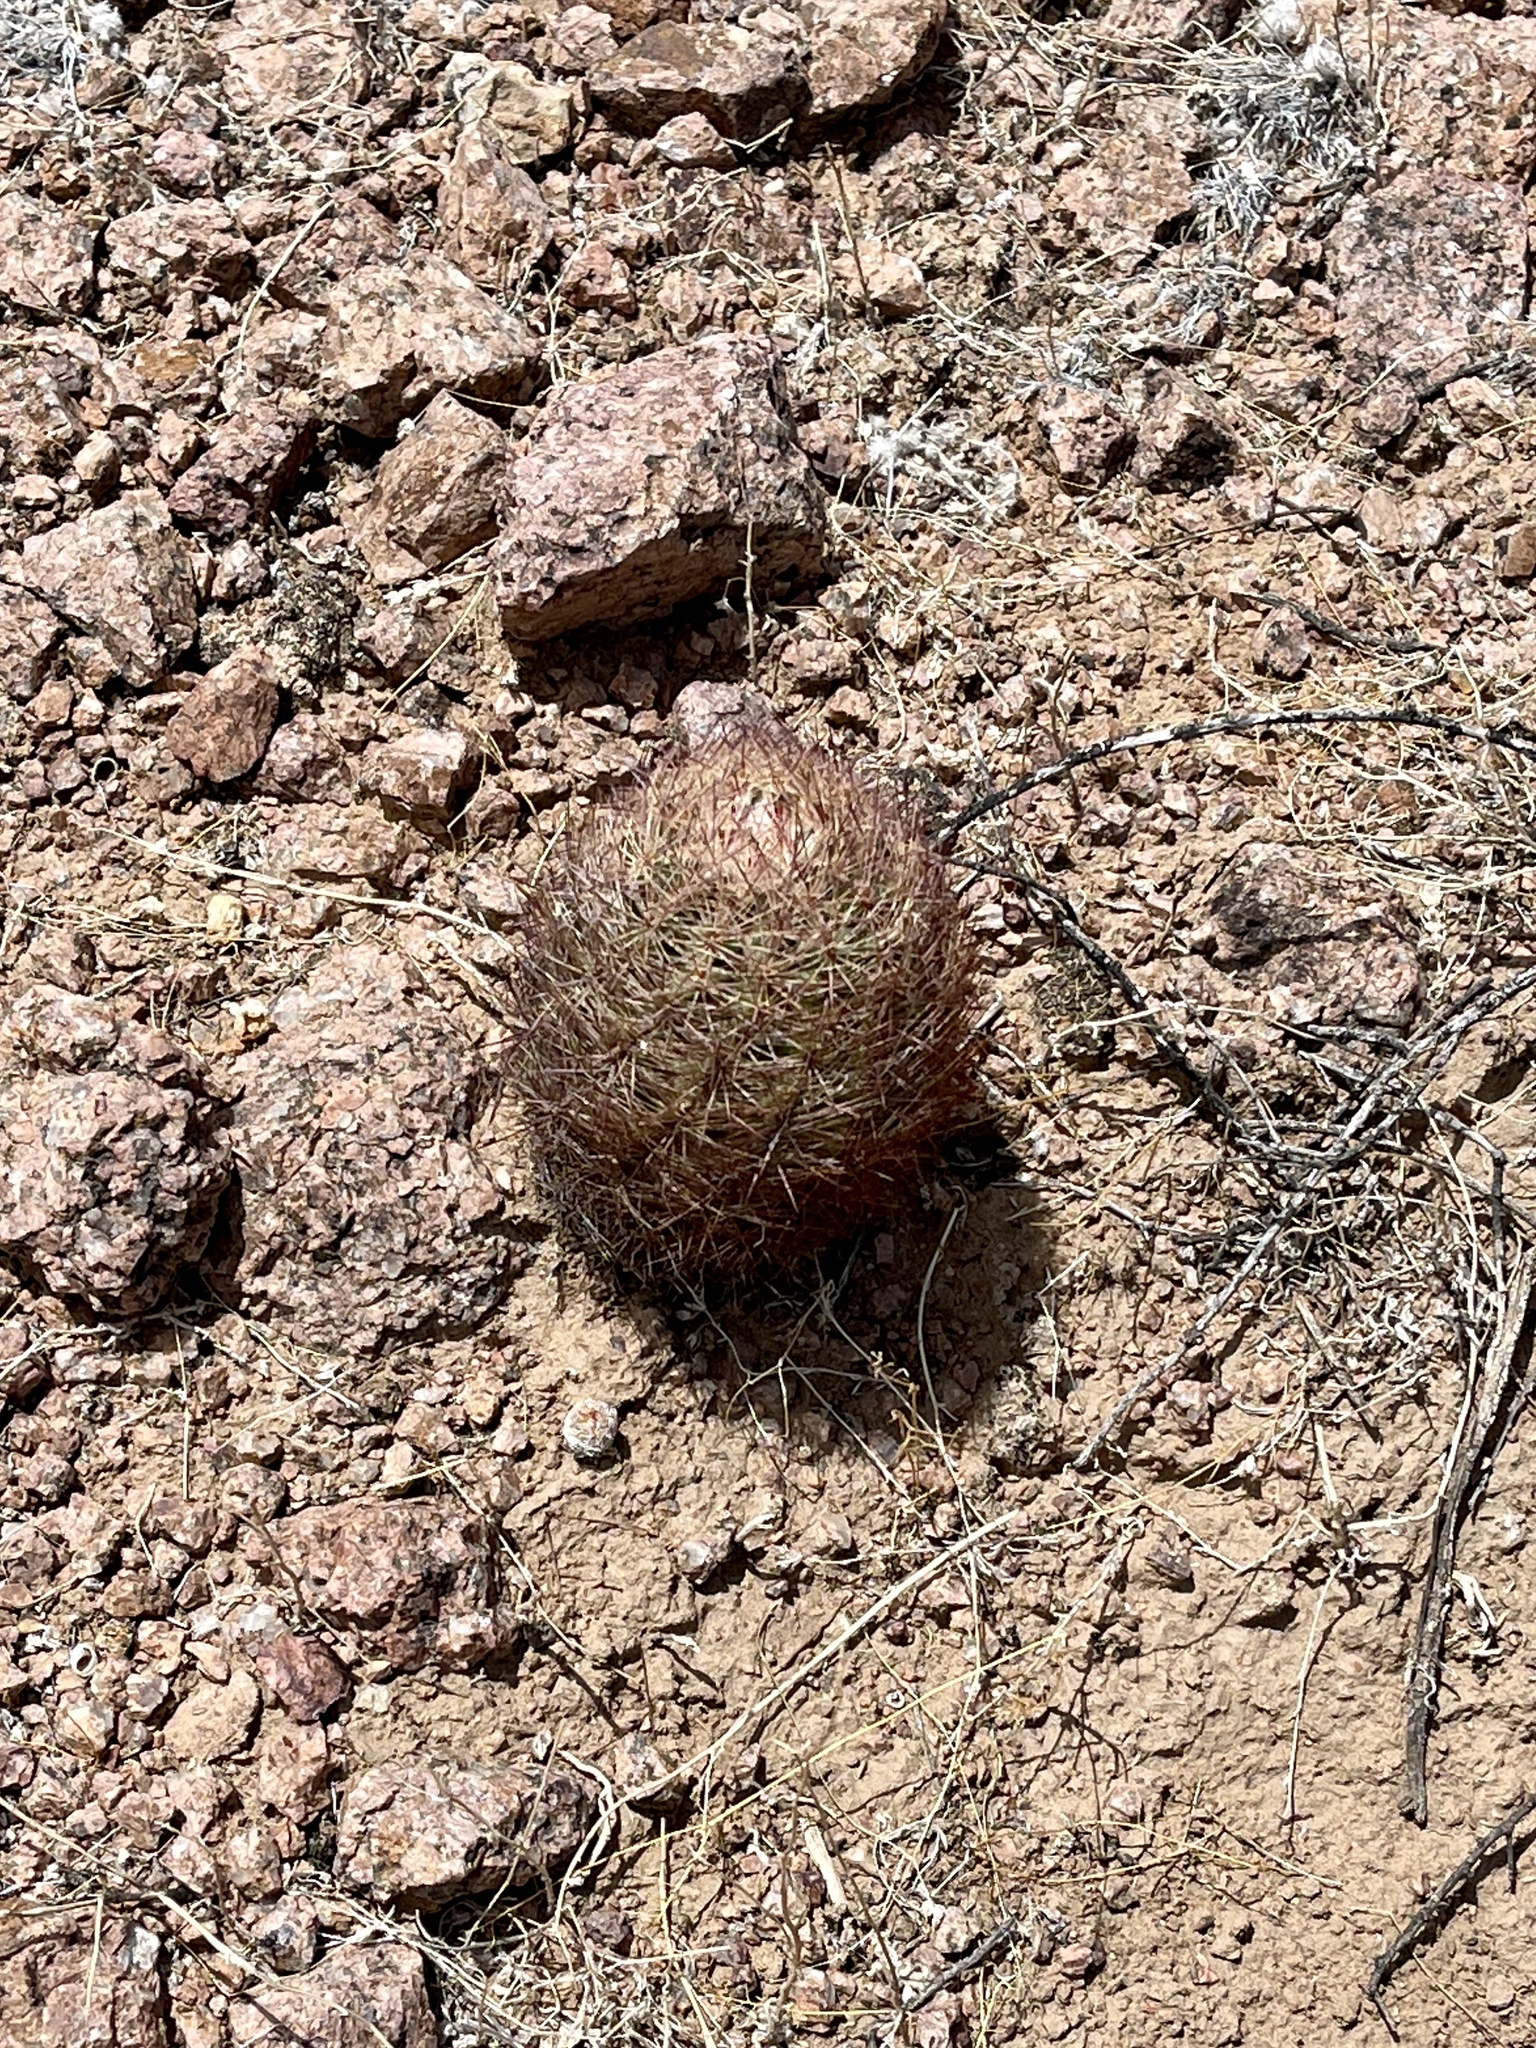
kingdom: Plantae
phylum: Tracheophyta
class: Magnoliopsida
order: Caryophyllales
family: Cactaceae
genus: Sclerocactus
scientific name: Sclerocactus intertextus
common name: White fish-hook cactus
